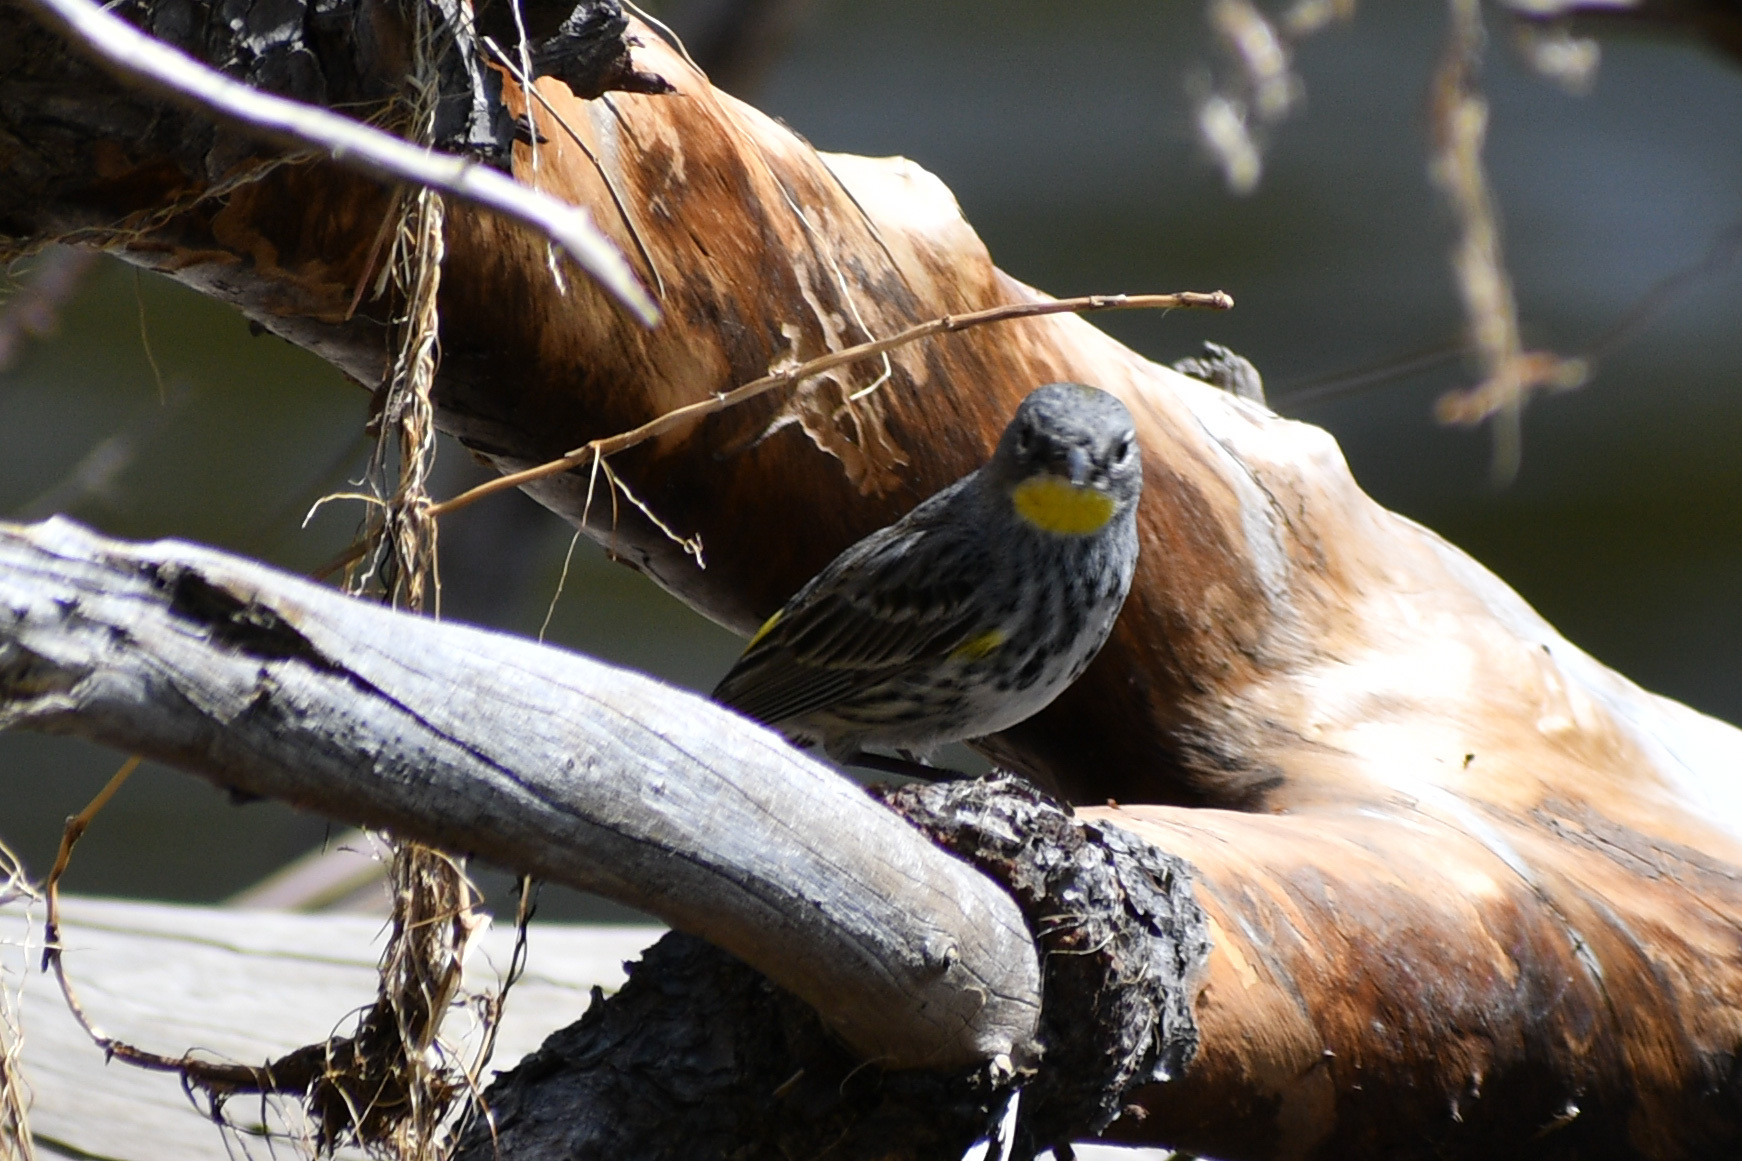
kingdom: Animalia
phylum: Chordata
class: Aves
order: Passeriformes
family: Parulidae
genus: Setophaga
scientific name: Setophaga auduboni
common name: Audubon's warbler
